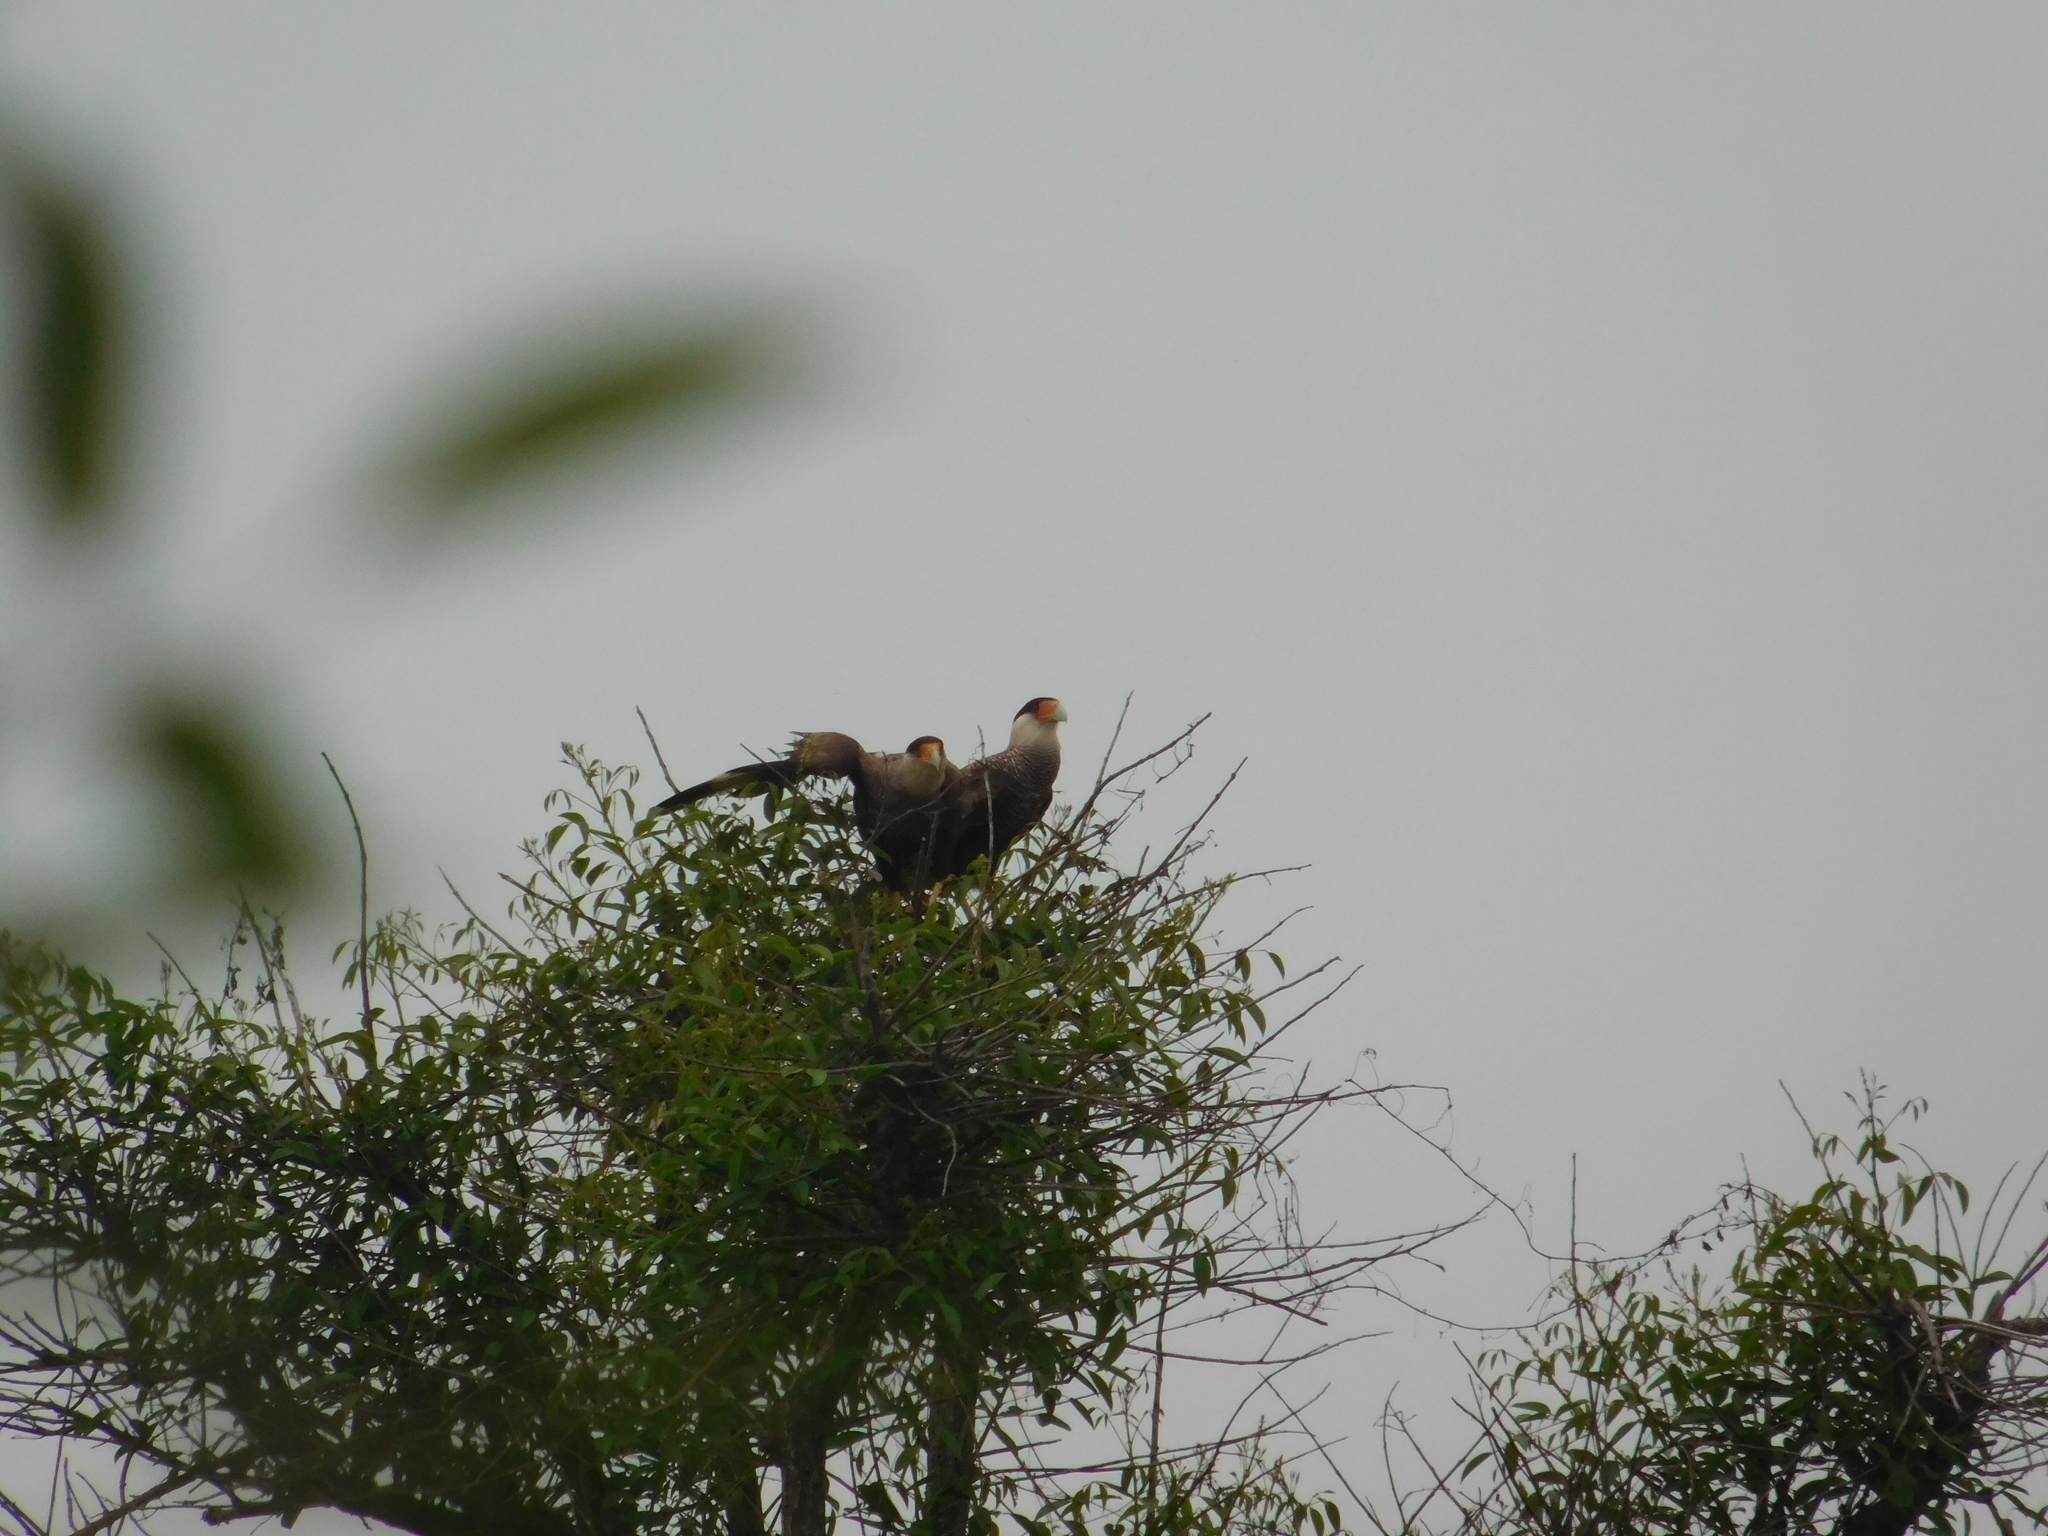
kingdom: Animalia
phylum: Chordata
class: Aves
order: Falconiformes
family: Falconidae
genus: Caracara
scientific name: Caracara plancus
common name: Southern caracara
